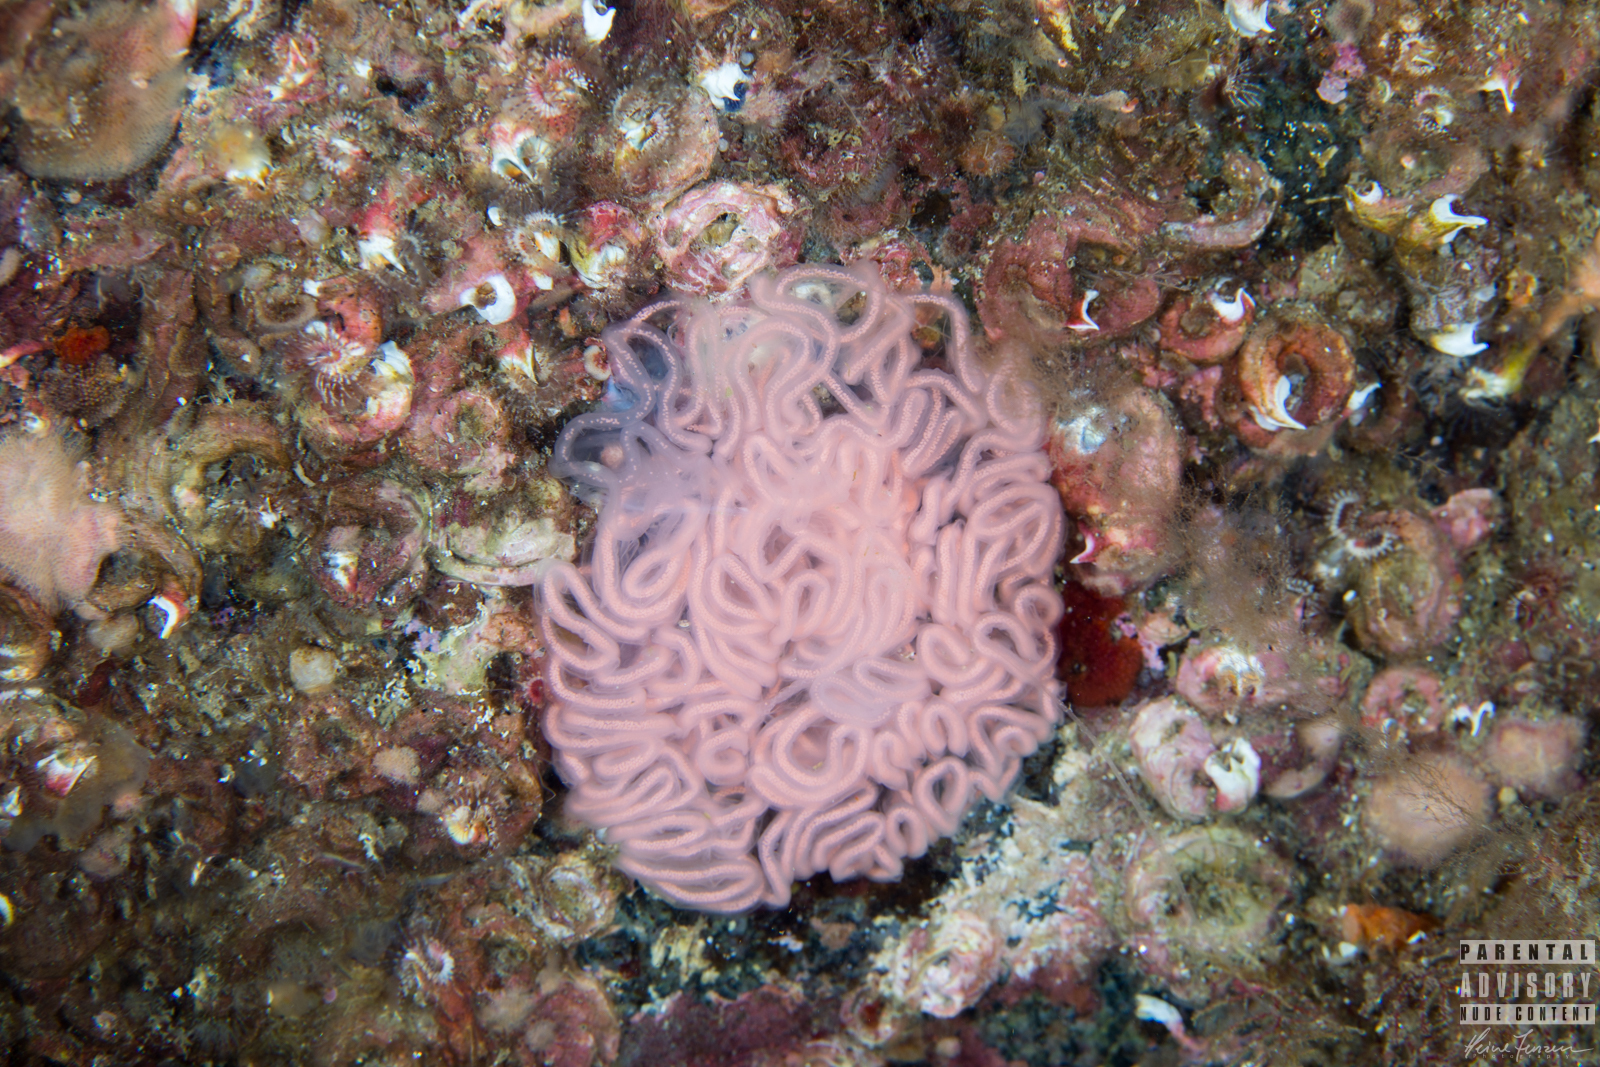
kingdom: Animalia
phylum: Mollusca
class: Gastropoda
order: Nudibranchia
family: Tritoniidae
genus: Tritonia
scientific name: Tritonia hombergii
